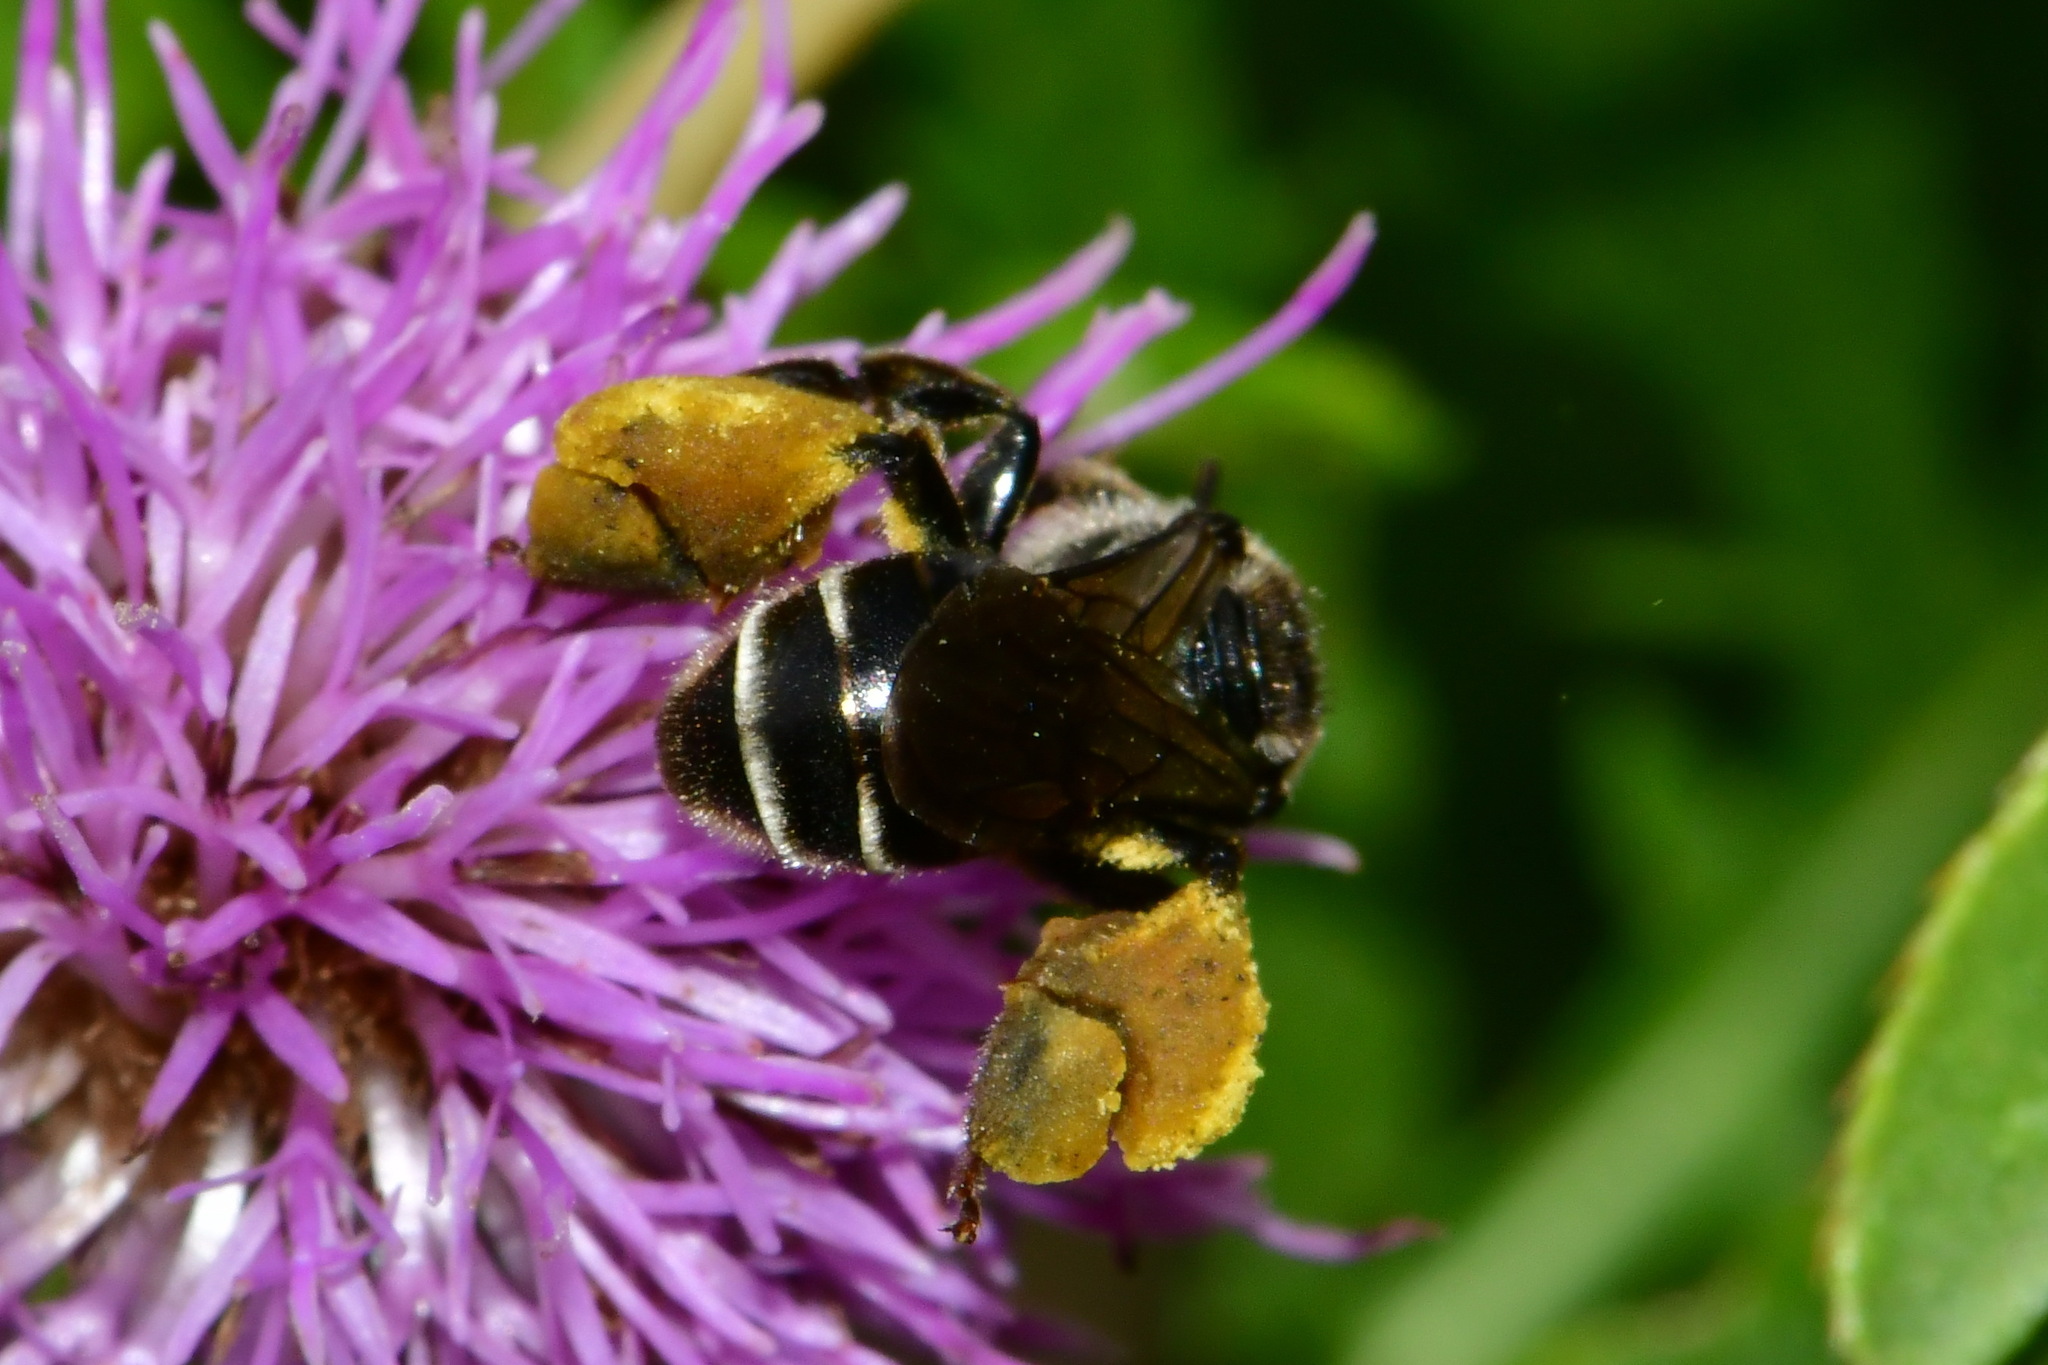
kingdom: Animalia
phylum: Arthropoda
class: Insecta
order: Hymenoptera
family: Melittidae
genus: Macropis
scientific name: Macropis europaea
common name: Yellow loosestrife bee
